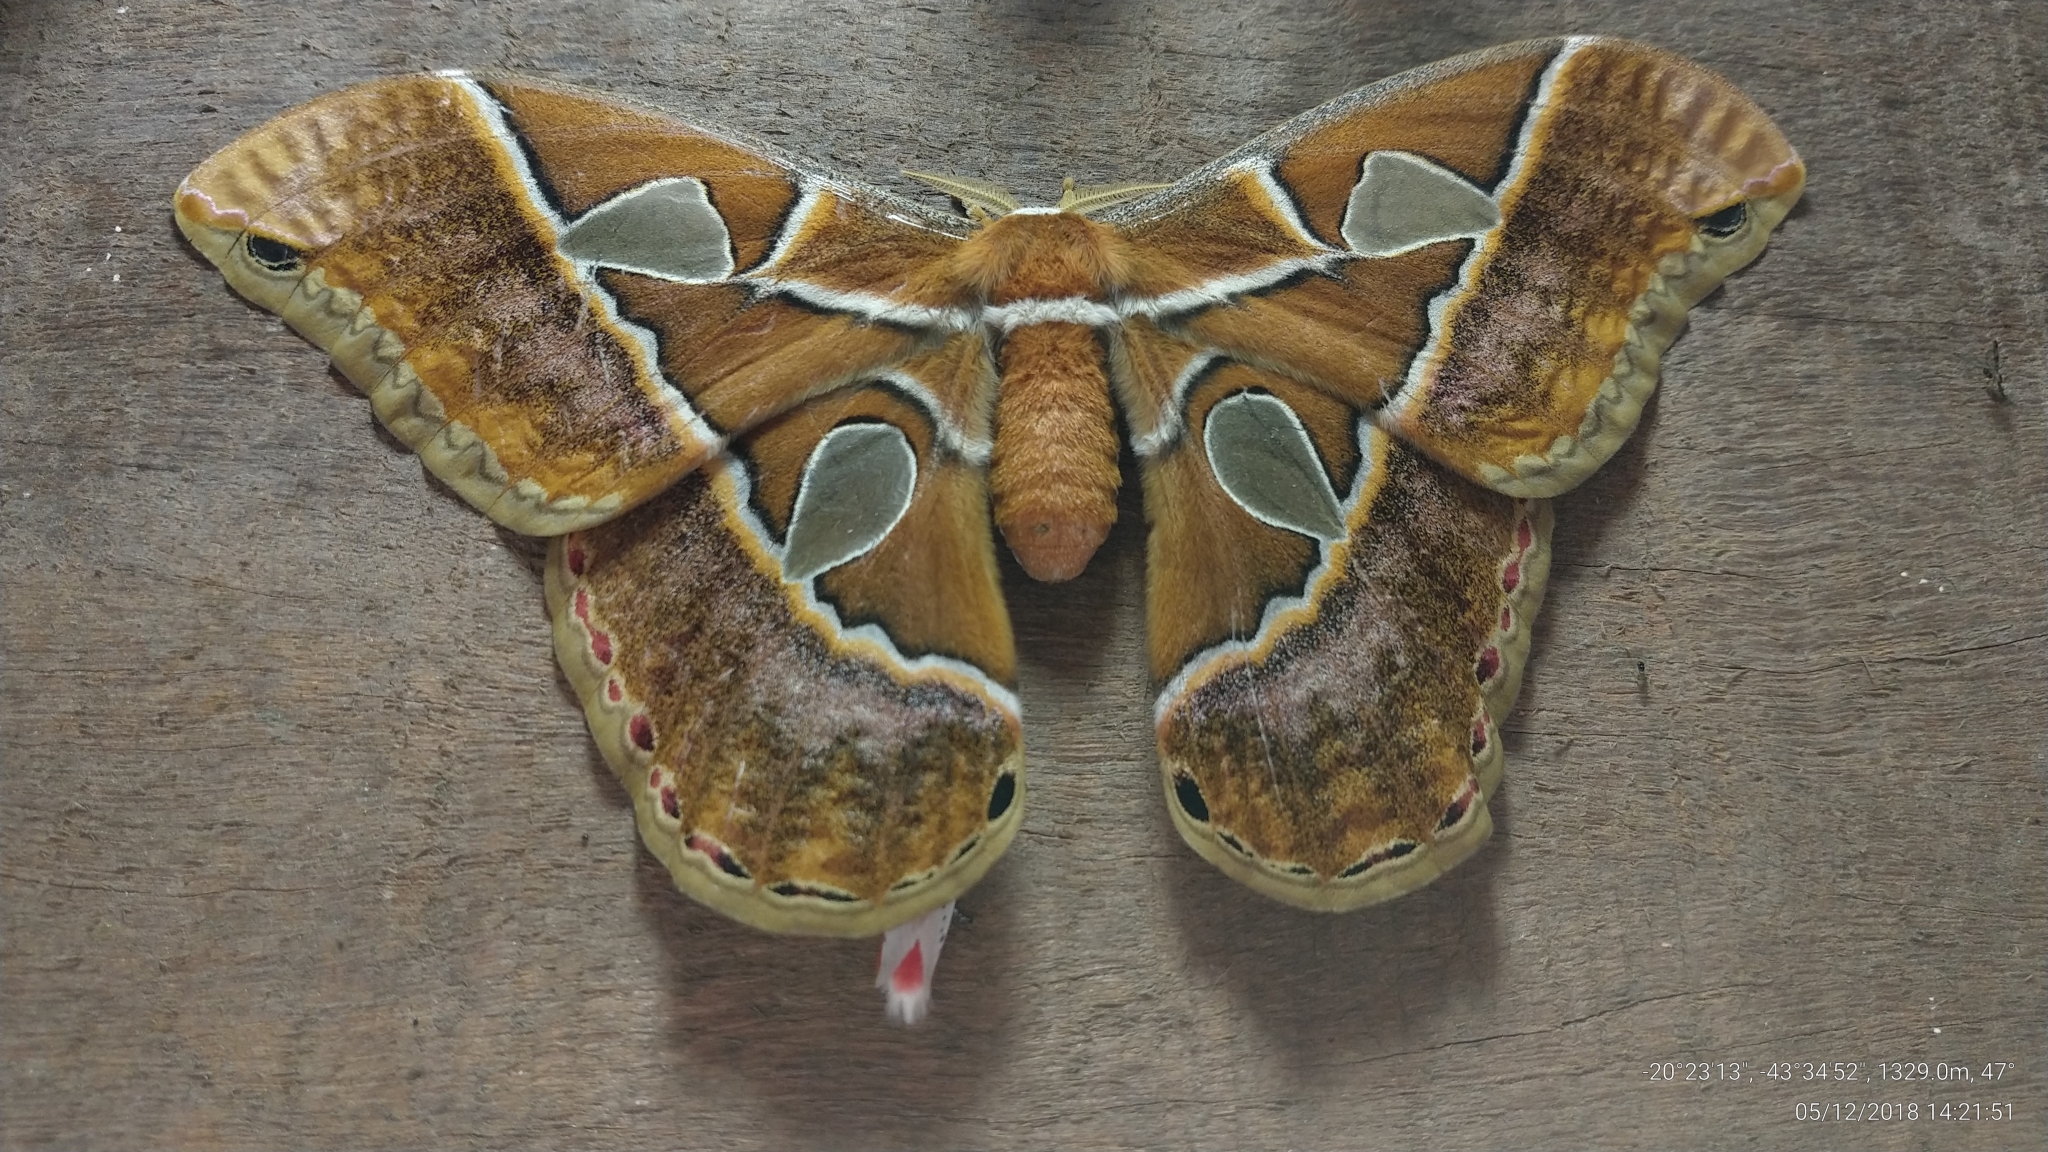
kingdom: Animalia
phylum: Arthropoda
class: Insecta
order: Lepidoptera
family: Saturniidae
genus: Rothschildia
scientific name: Rothschildia hesperus
